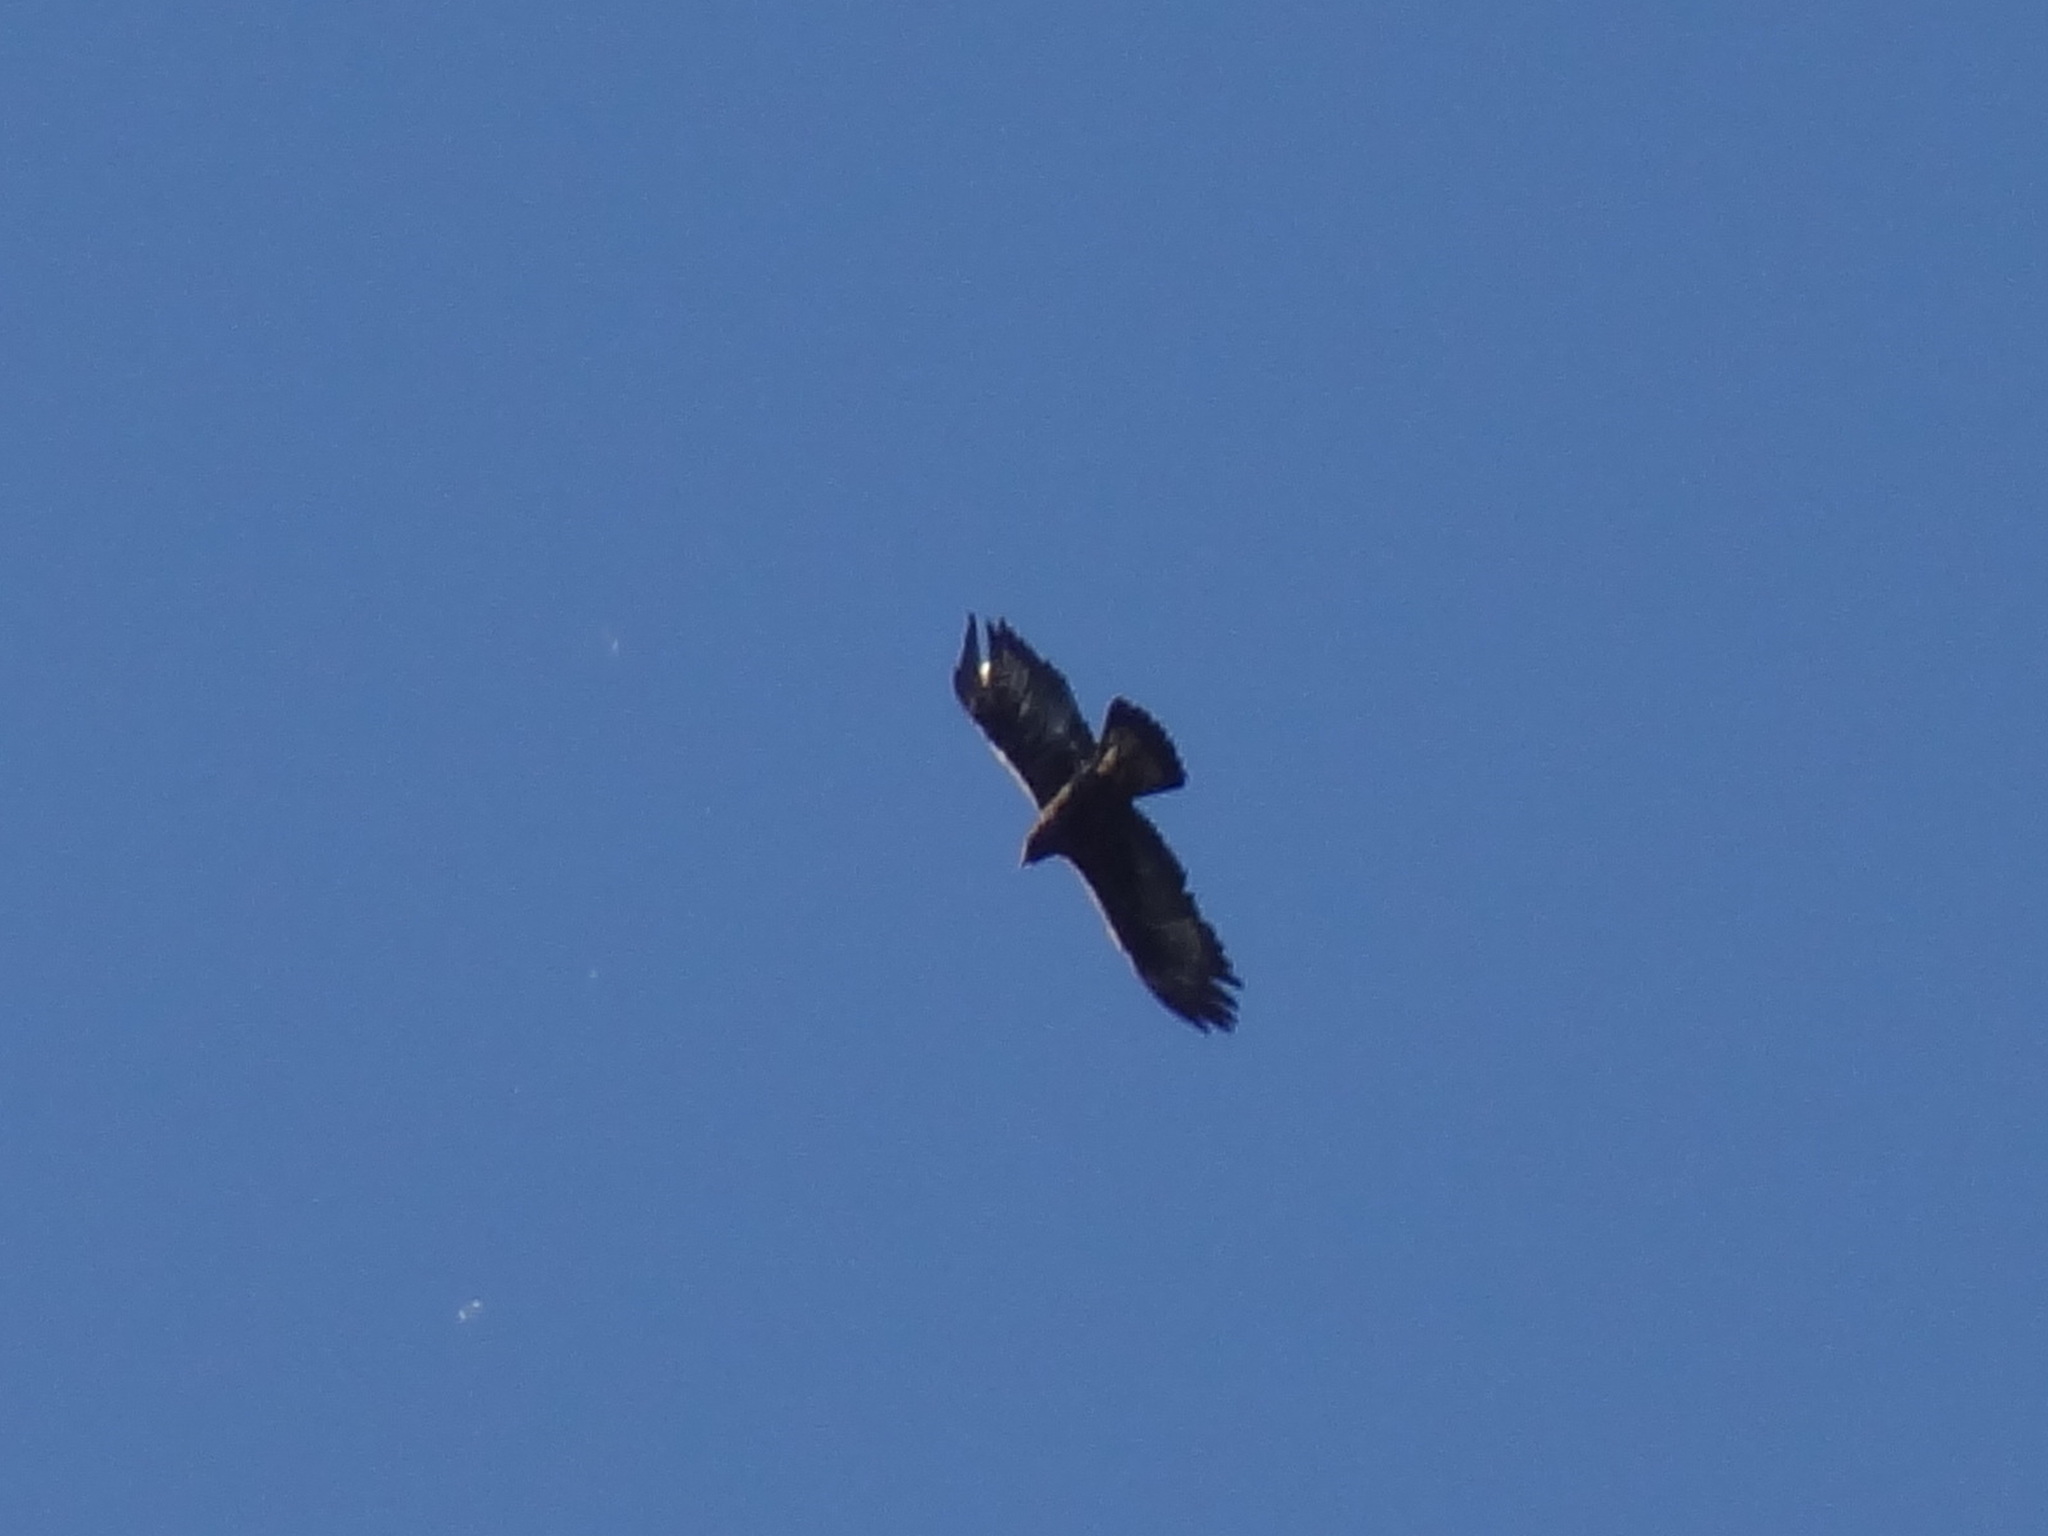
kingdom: Animalia
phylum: Chordata
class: Aves
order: Accipitriformes
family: Accipitridae
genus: Aquila
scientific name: Aquila chrysaetos
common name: Golden eagle
